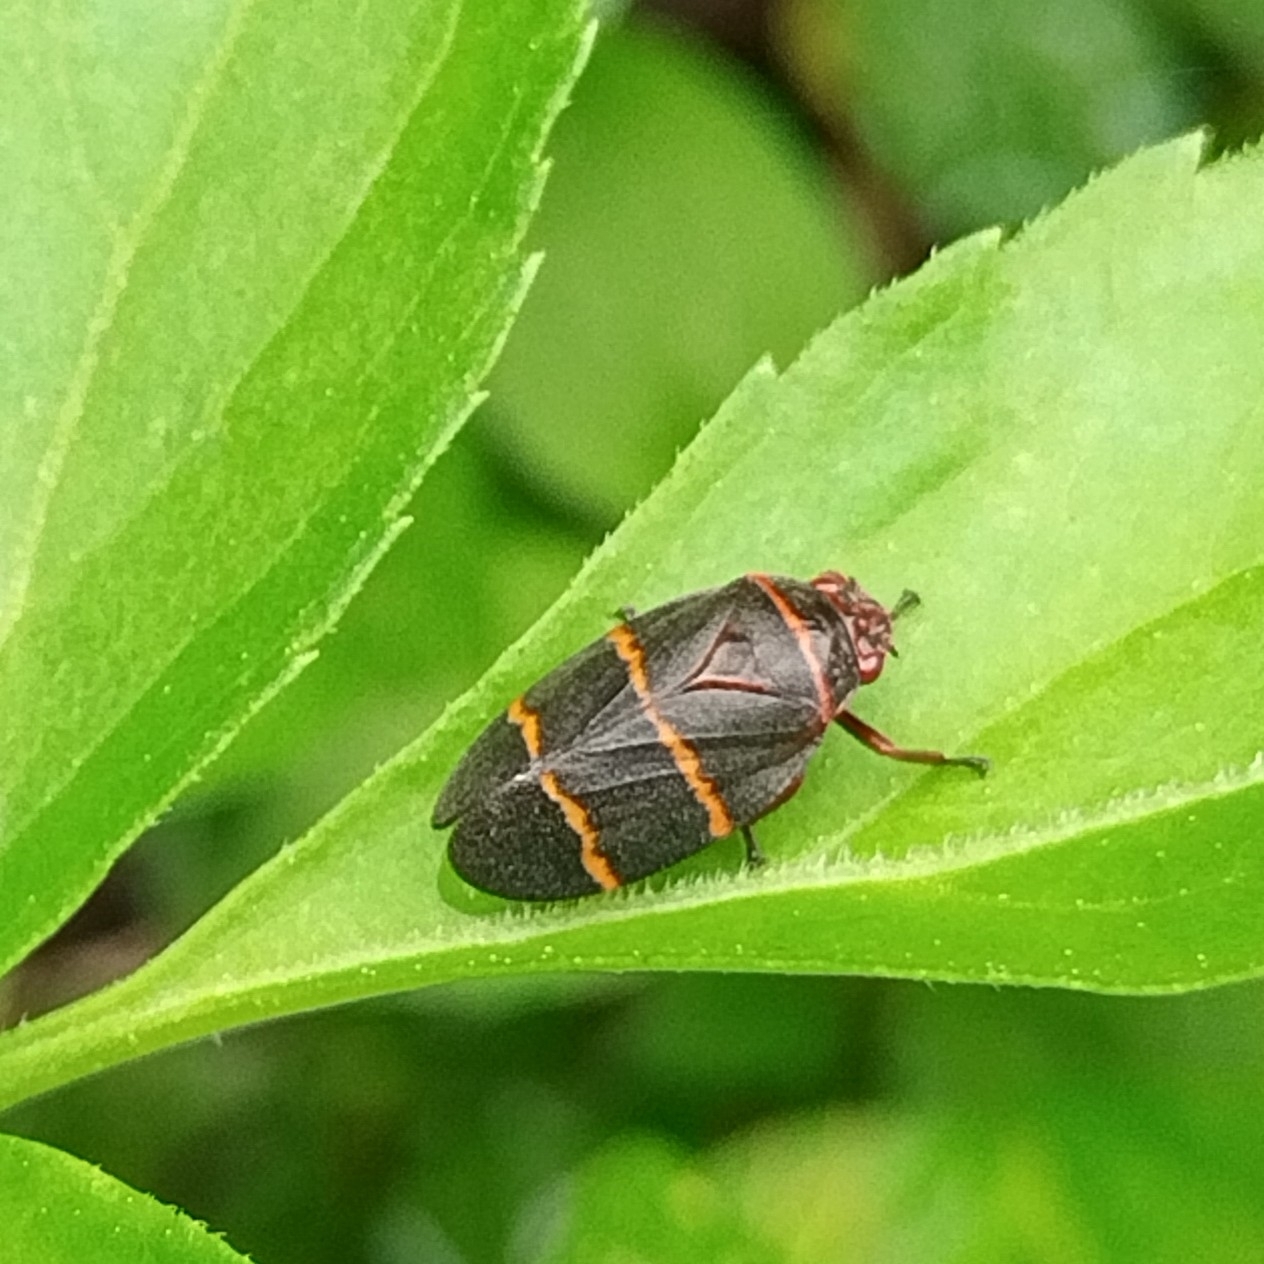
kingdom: Animalia
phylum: Arthropoda
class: Insecta
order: Hemiptera
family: Cercopidae
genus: Prosapia
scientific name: Prosapia bicincta
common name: Twolined spittlebug
